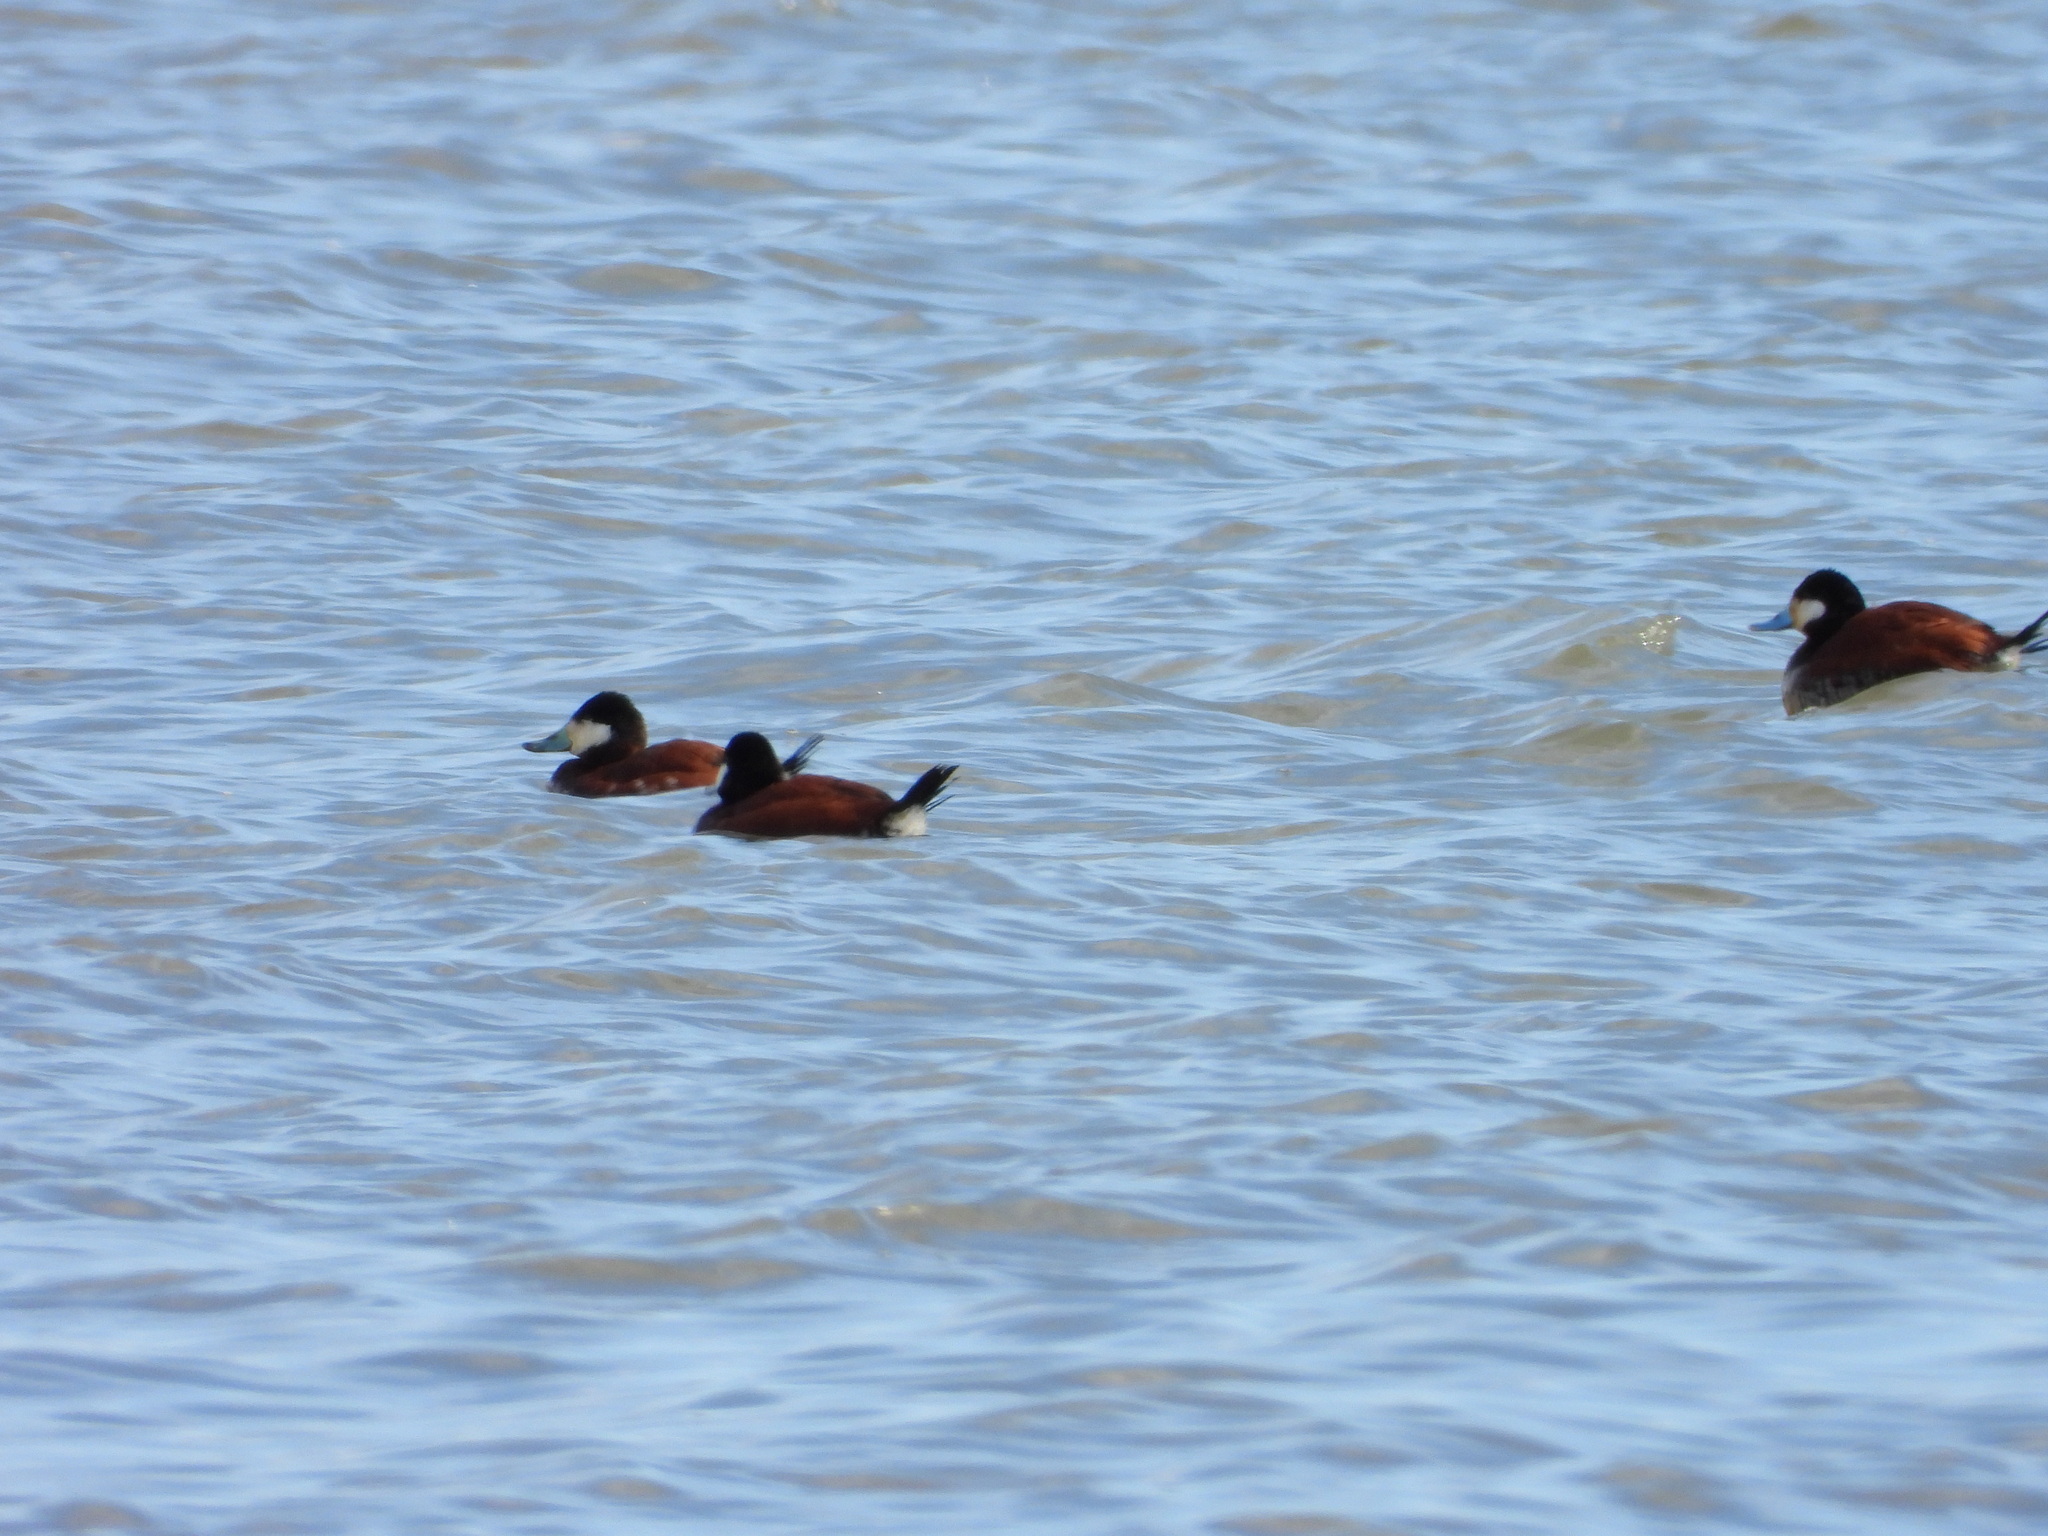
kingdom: Animalia
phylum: Chordata
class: Aves
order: Anseriformes
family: Anatidae
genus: Oxyura
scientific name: Oxyura jamaicensis
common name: Ruddy duck
